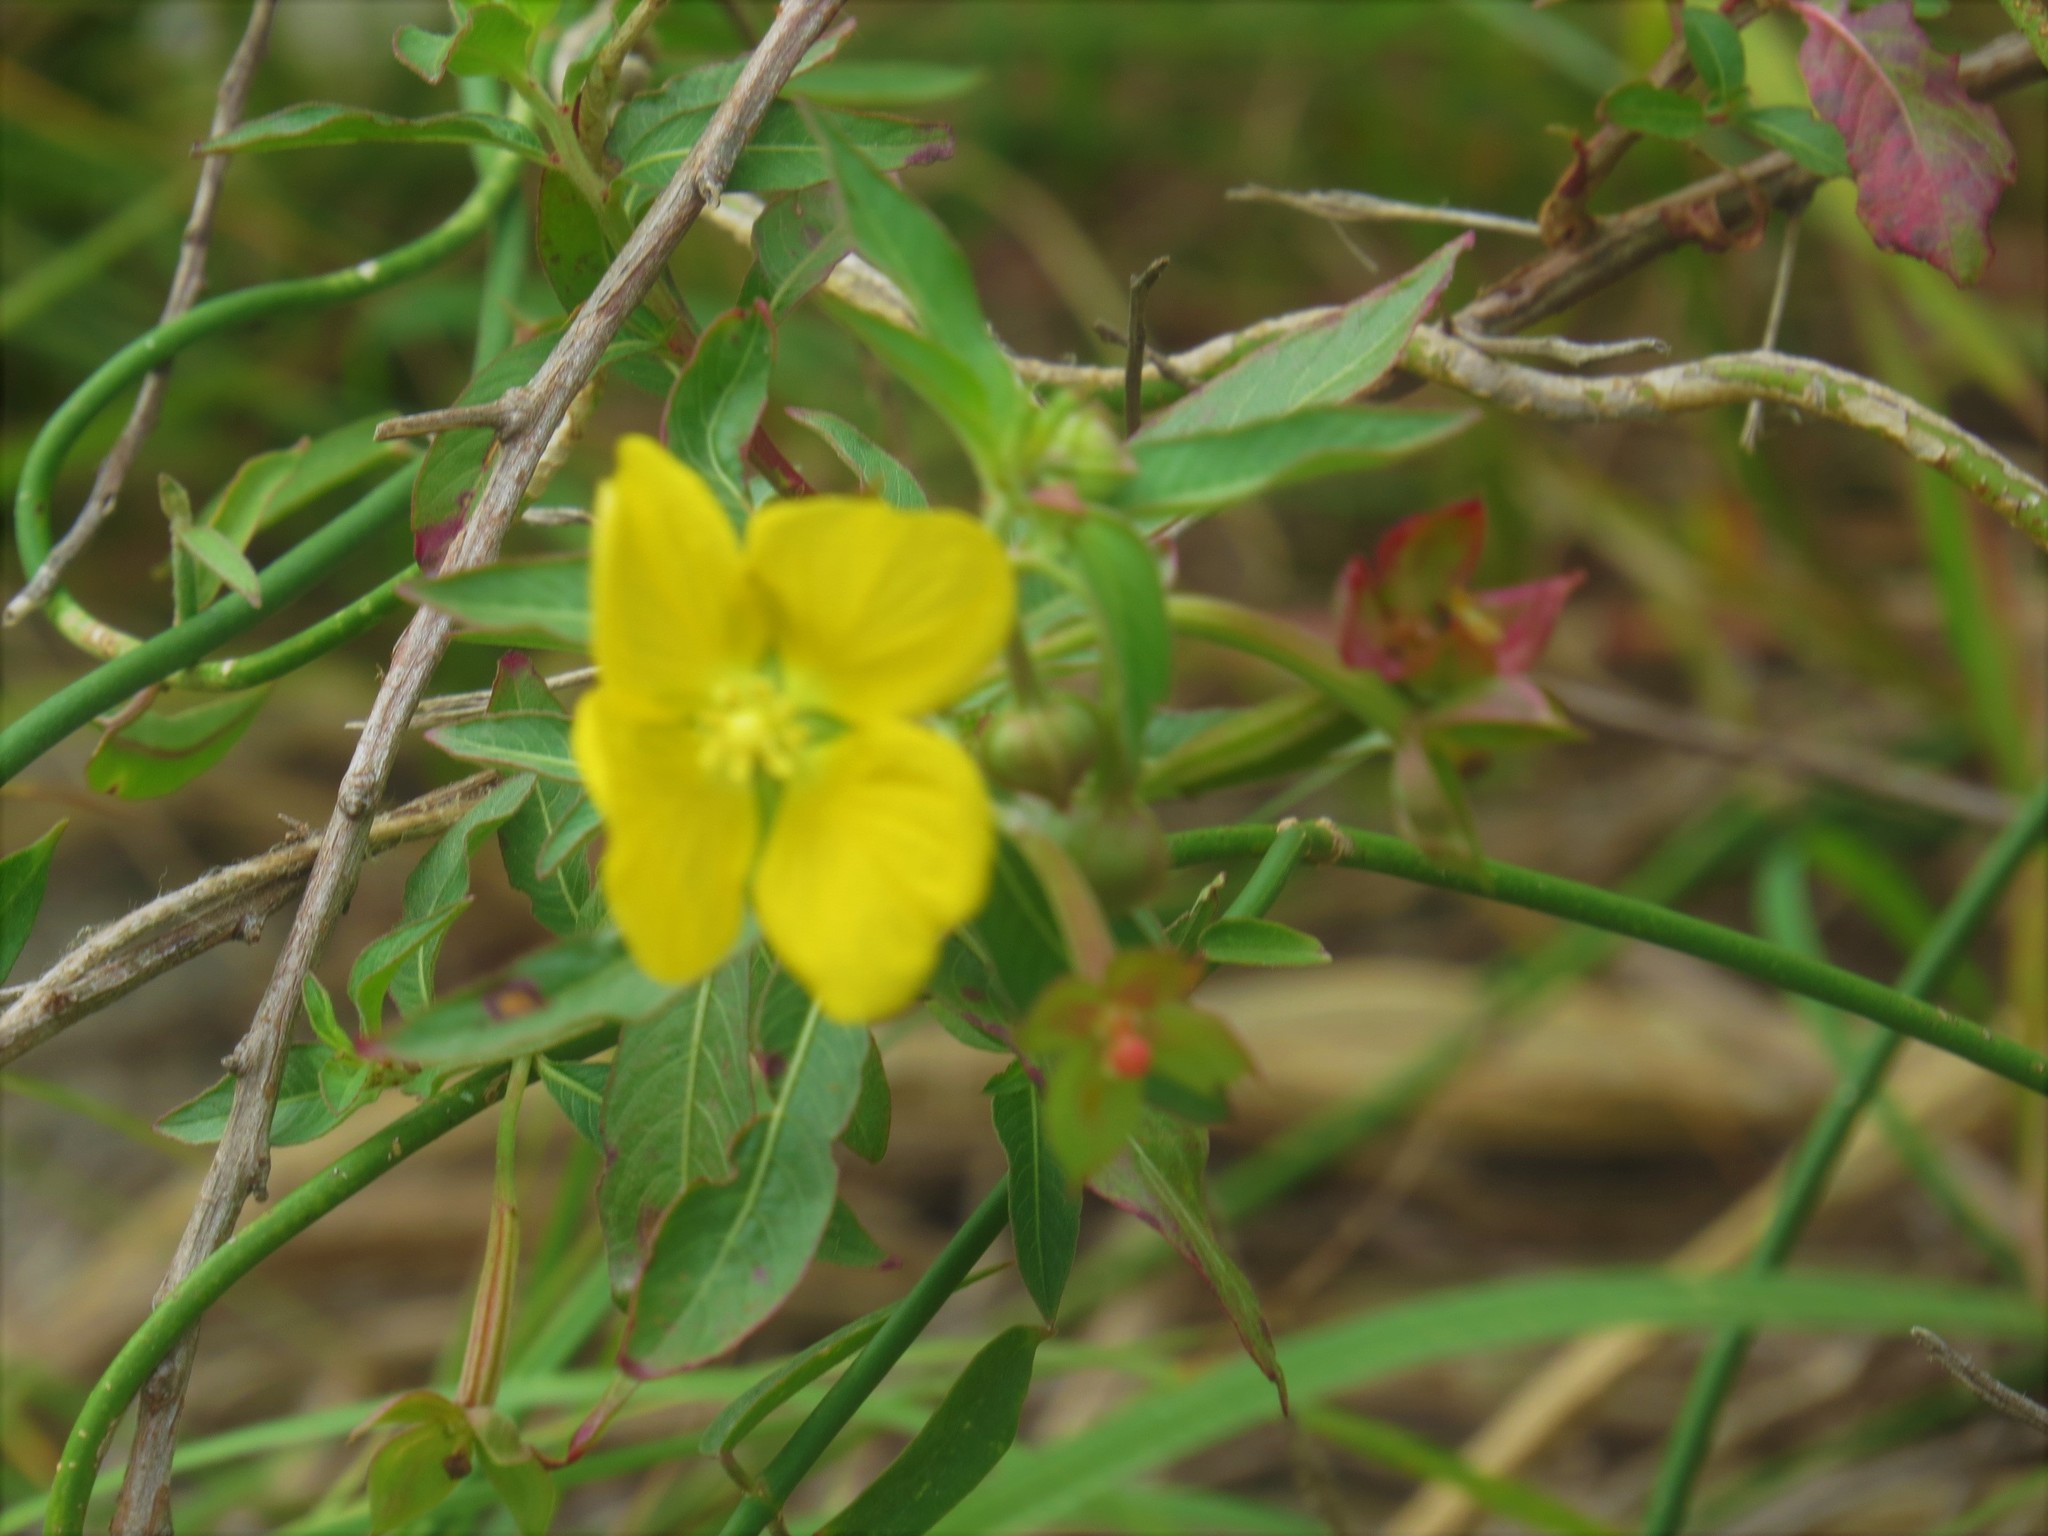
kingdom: Plantae
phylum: Tracheophyta
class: Magnoliopsida
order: Myrtales
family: Onagraceae
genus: Ludwigia
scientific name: Ludwigia octovalvis
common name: Water-primrose
